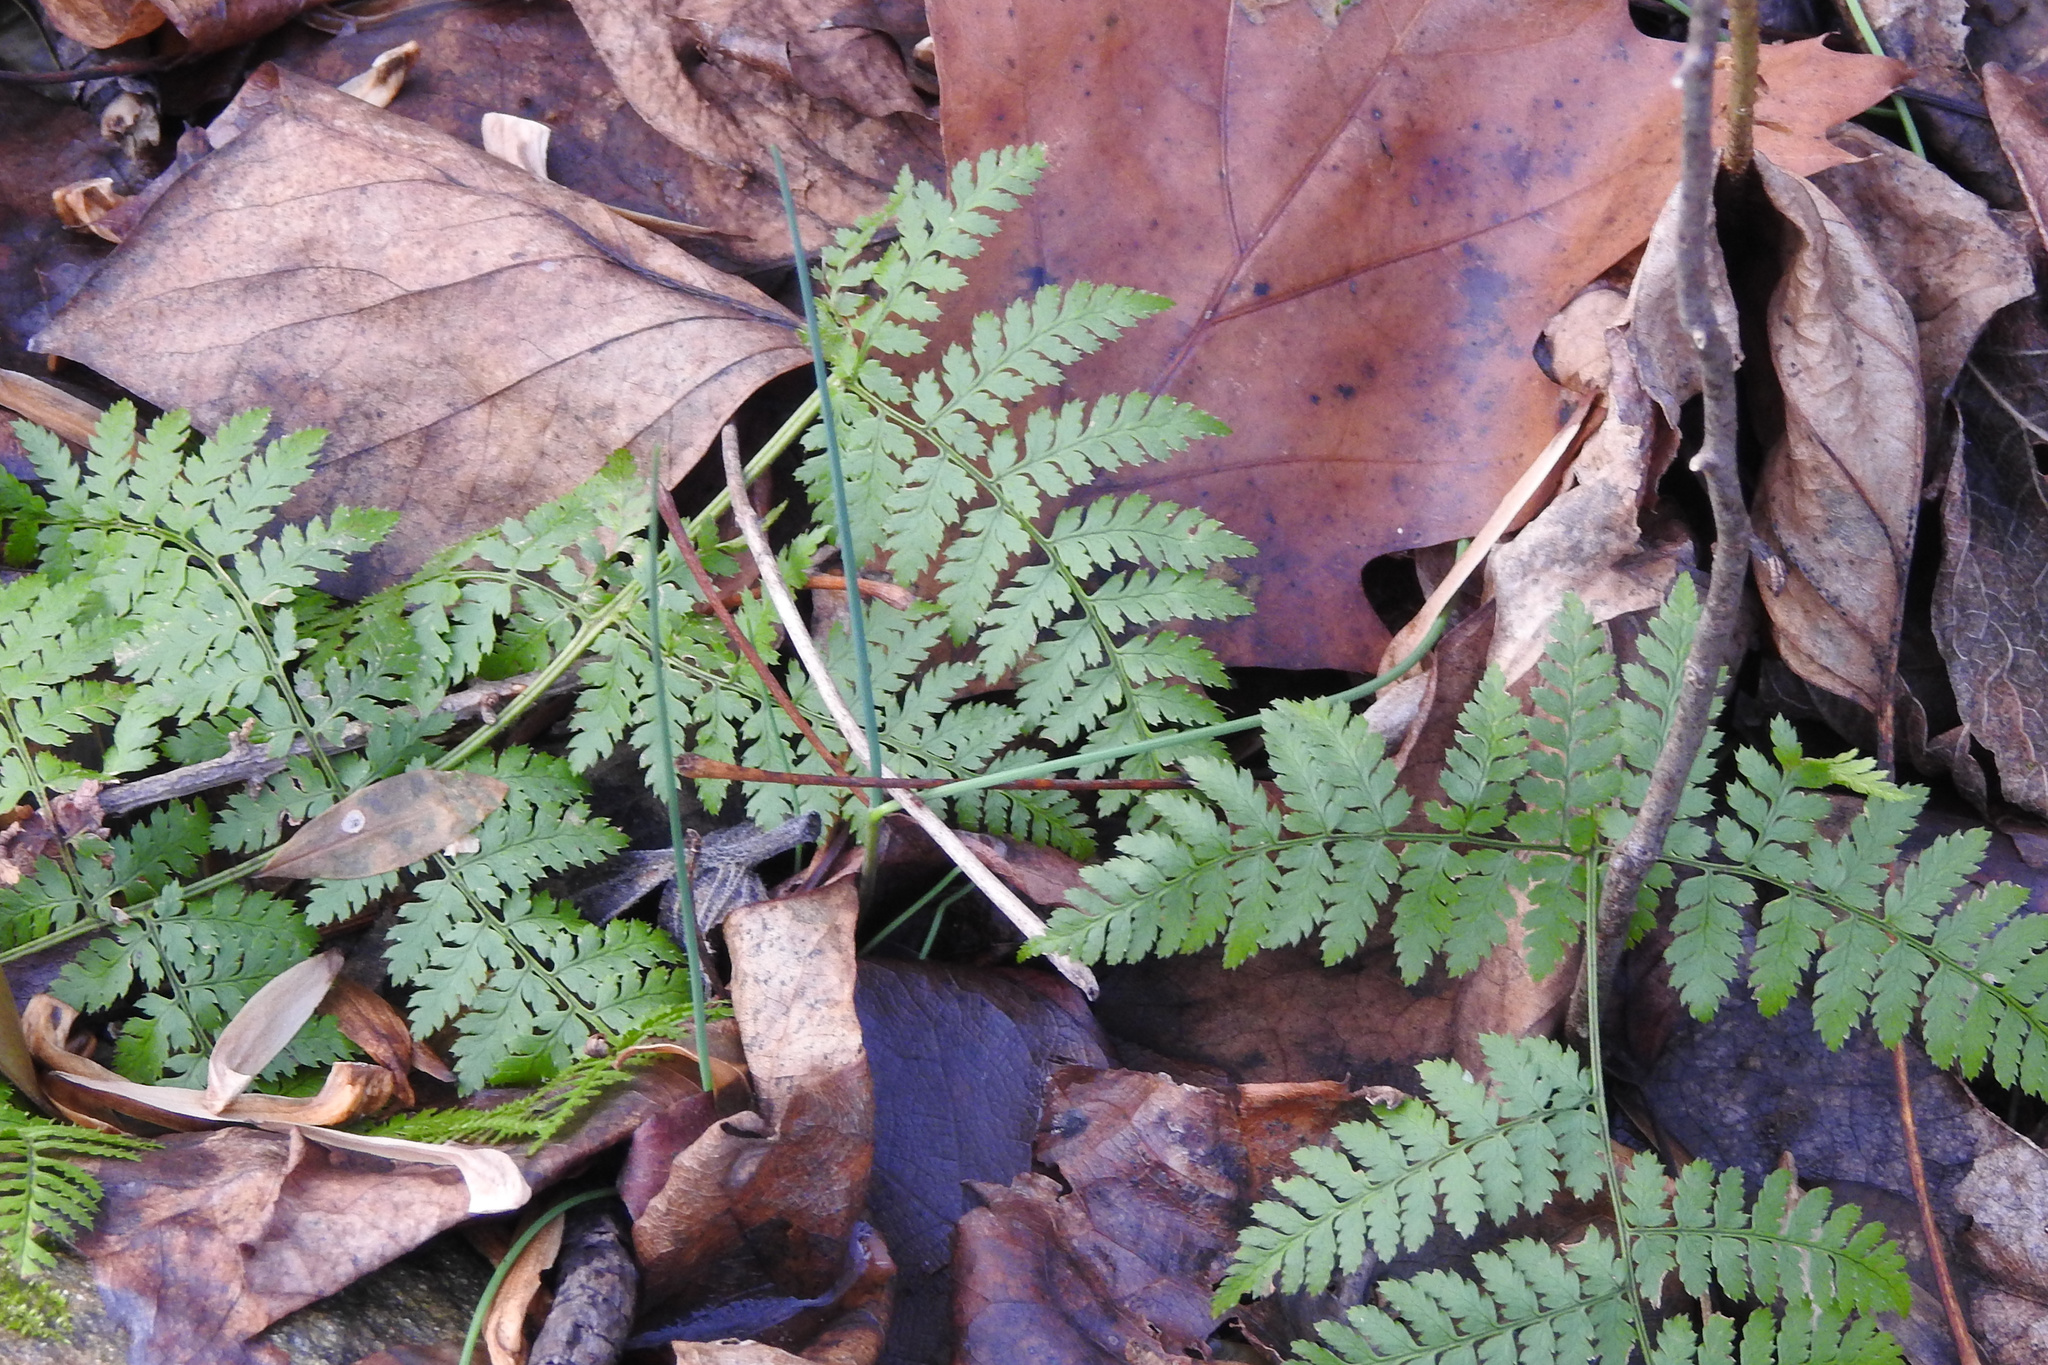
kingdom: Plantae
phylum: Tracheophyta
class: Polypodiopsida
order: Polypodiales
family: Dryopteridaceae
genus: Dryopteris
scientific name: Dryopteris intermedia
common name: Evergreen wood fern
